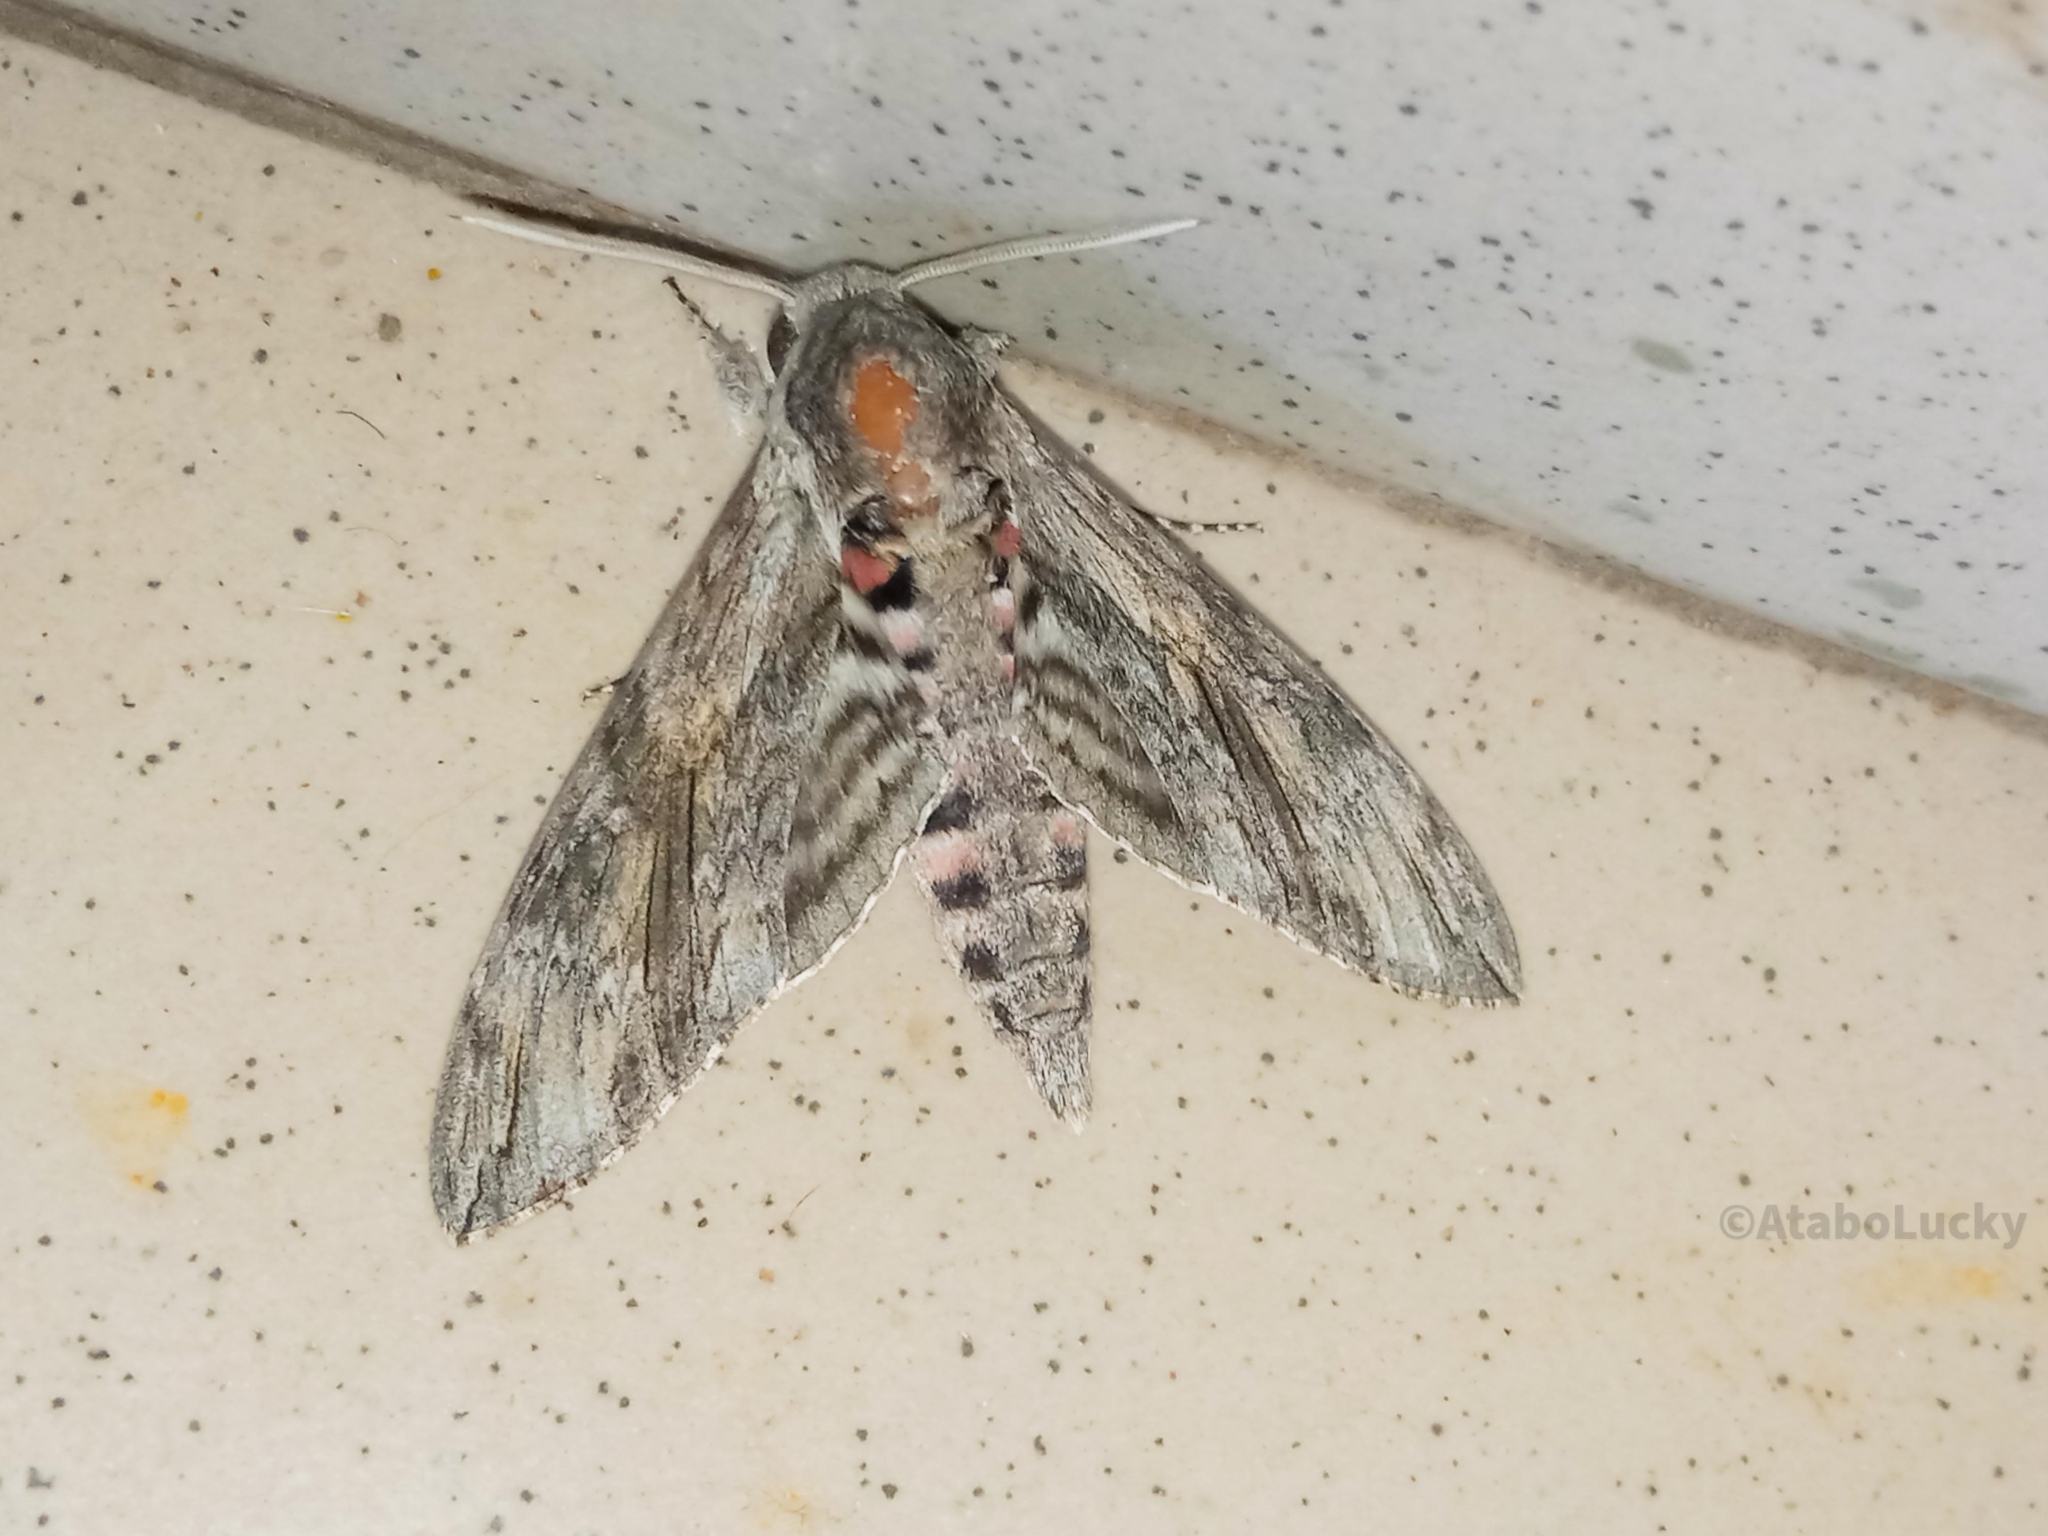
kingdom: Animalia
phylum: Arthropoda
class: Insecta
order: Lepidoptera
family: Sphingidae
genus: Agrius
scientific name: Agrius convolvuli
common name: Convolvulus hawkmoth
